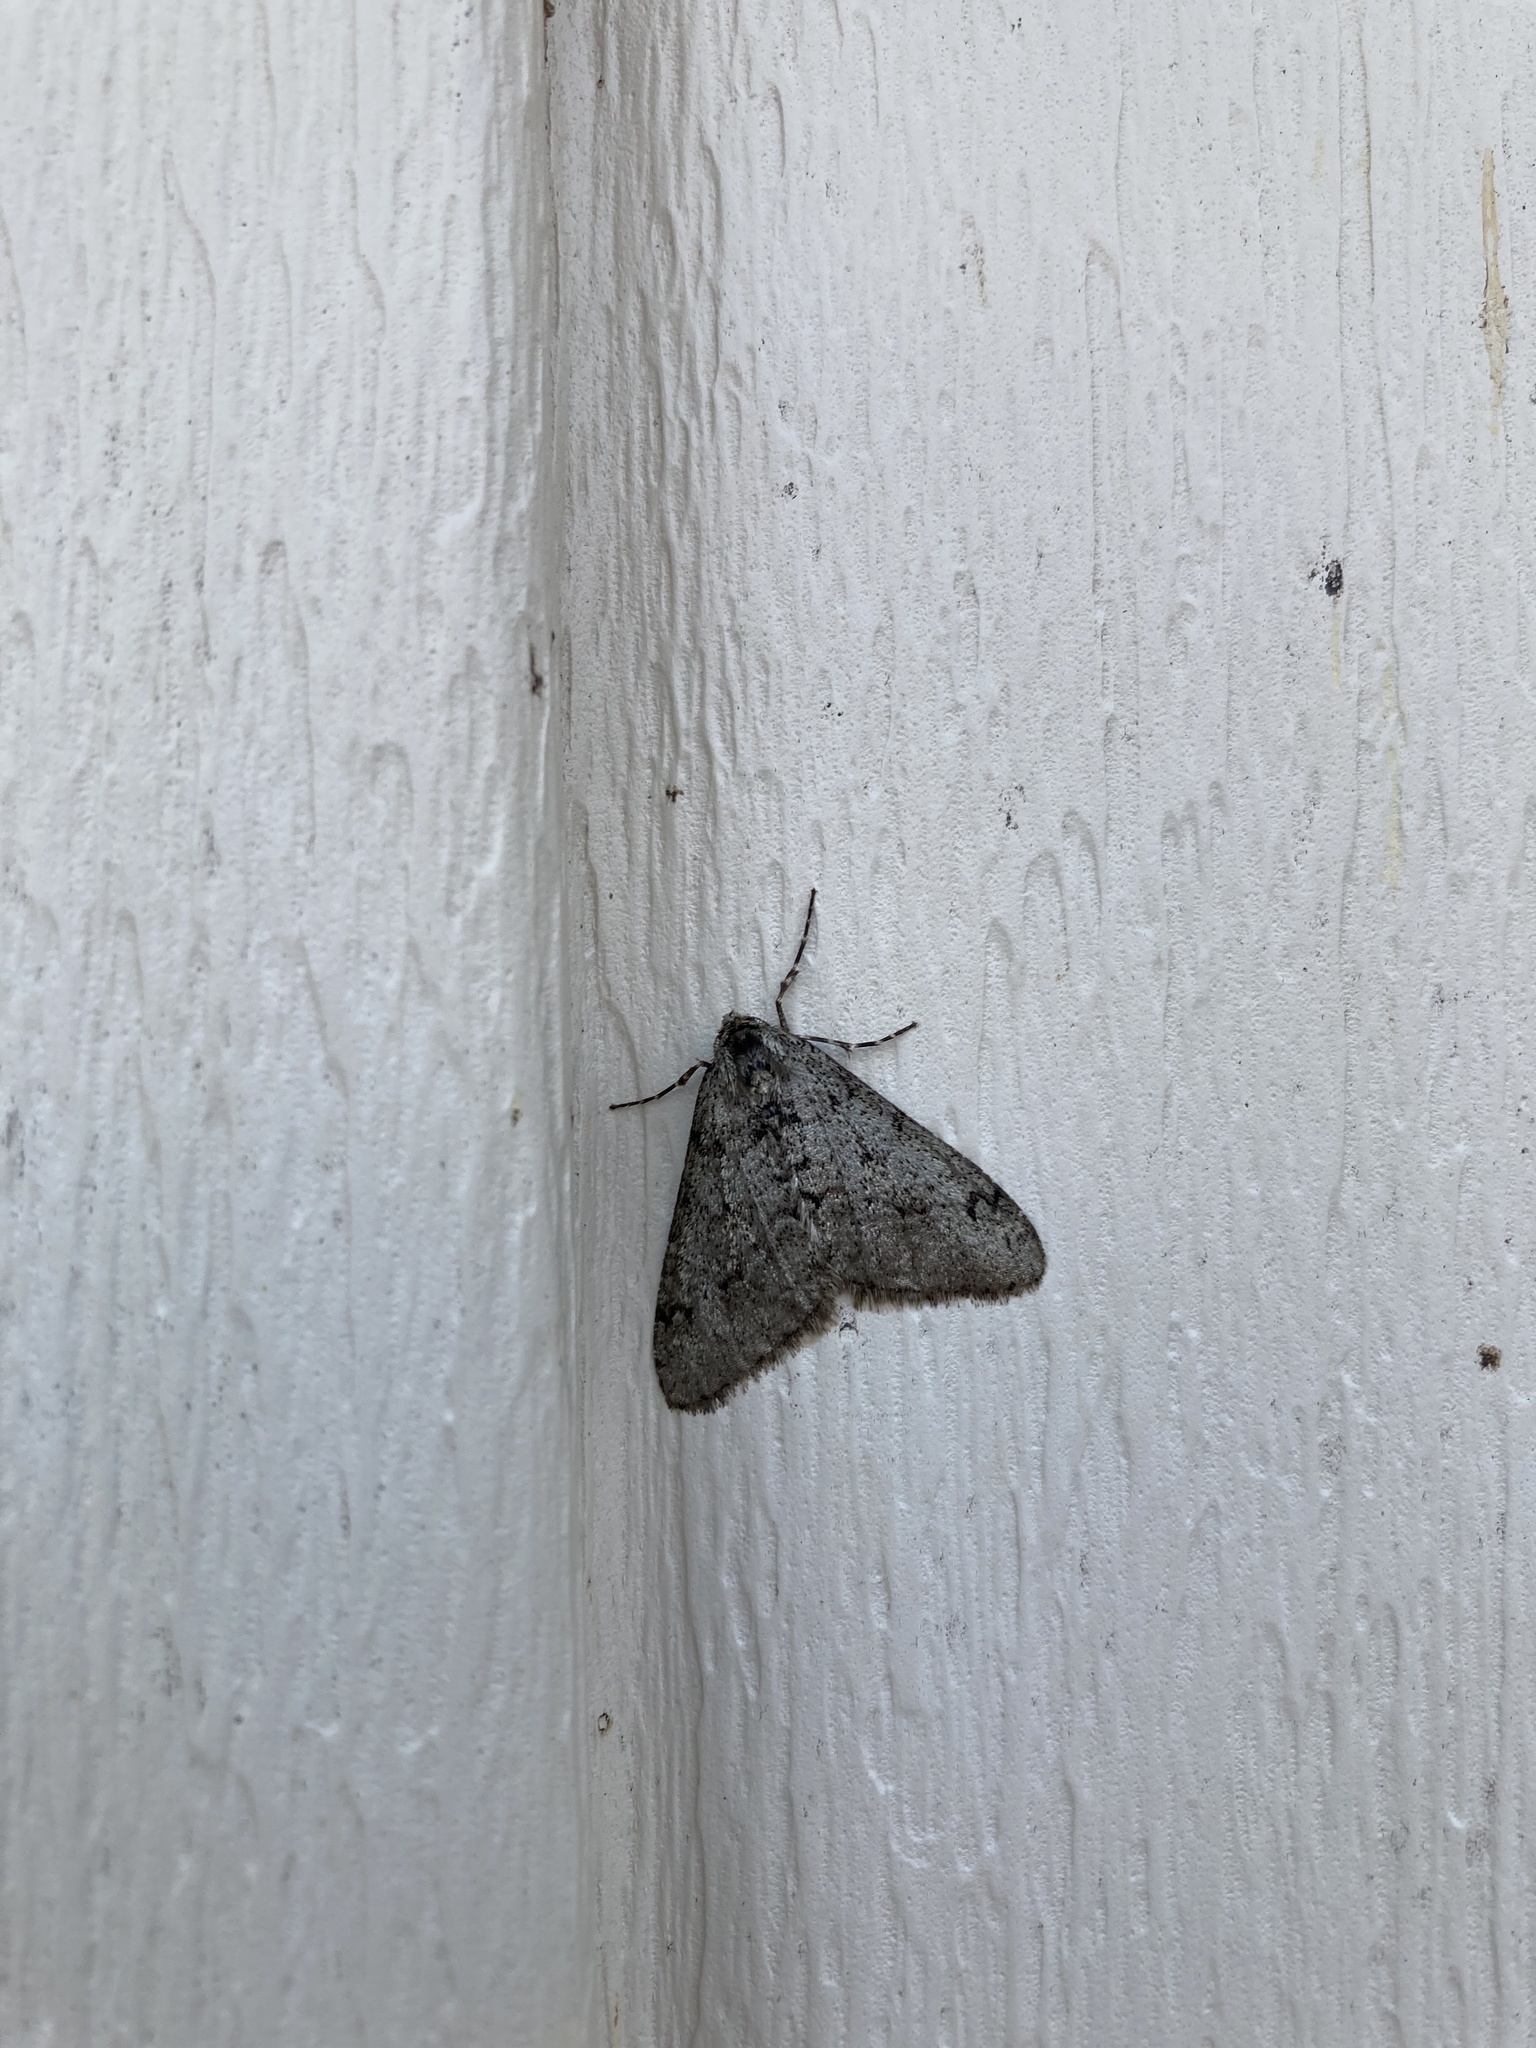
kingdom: Animalia
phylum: Arthropoda
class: Insecta
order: Lepidoptera
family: Geometridae
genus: Phigalia
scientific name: Phigalia strigataria
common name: Small phigalia
